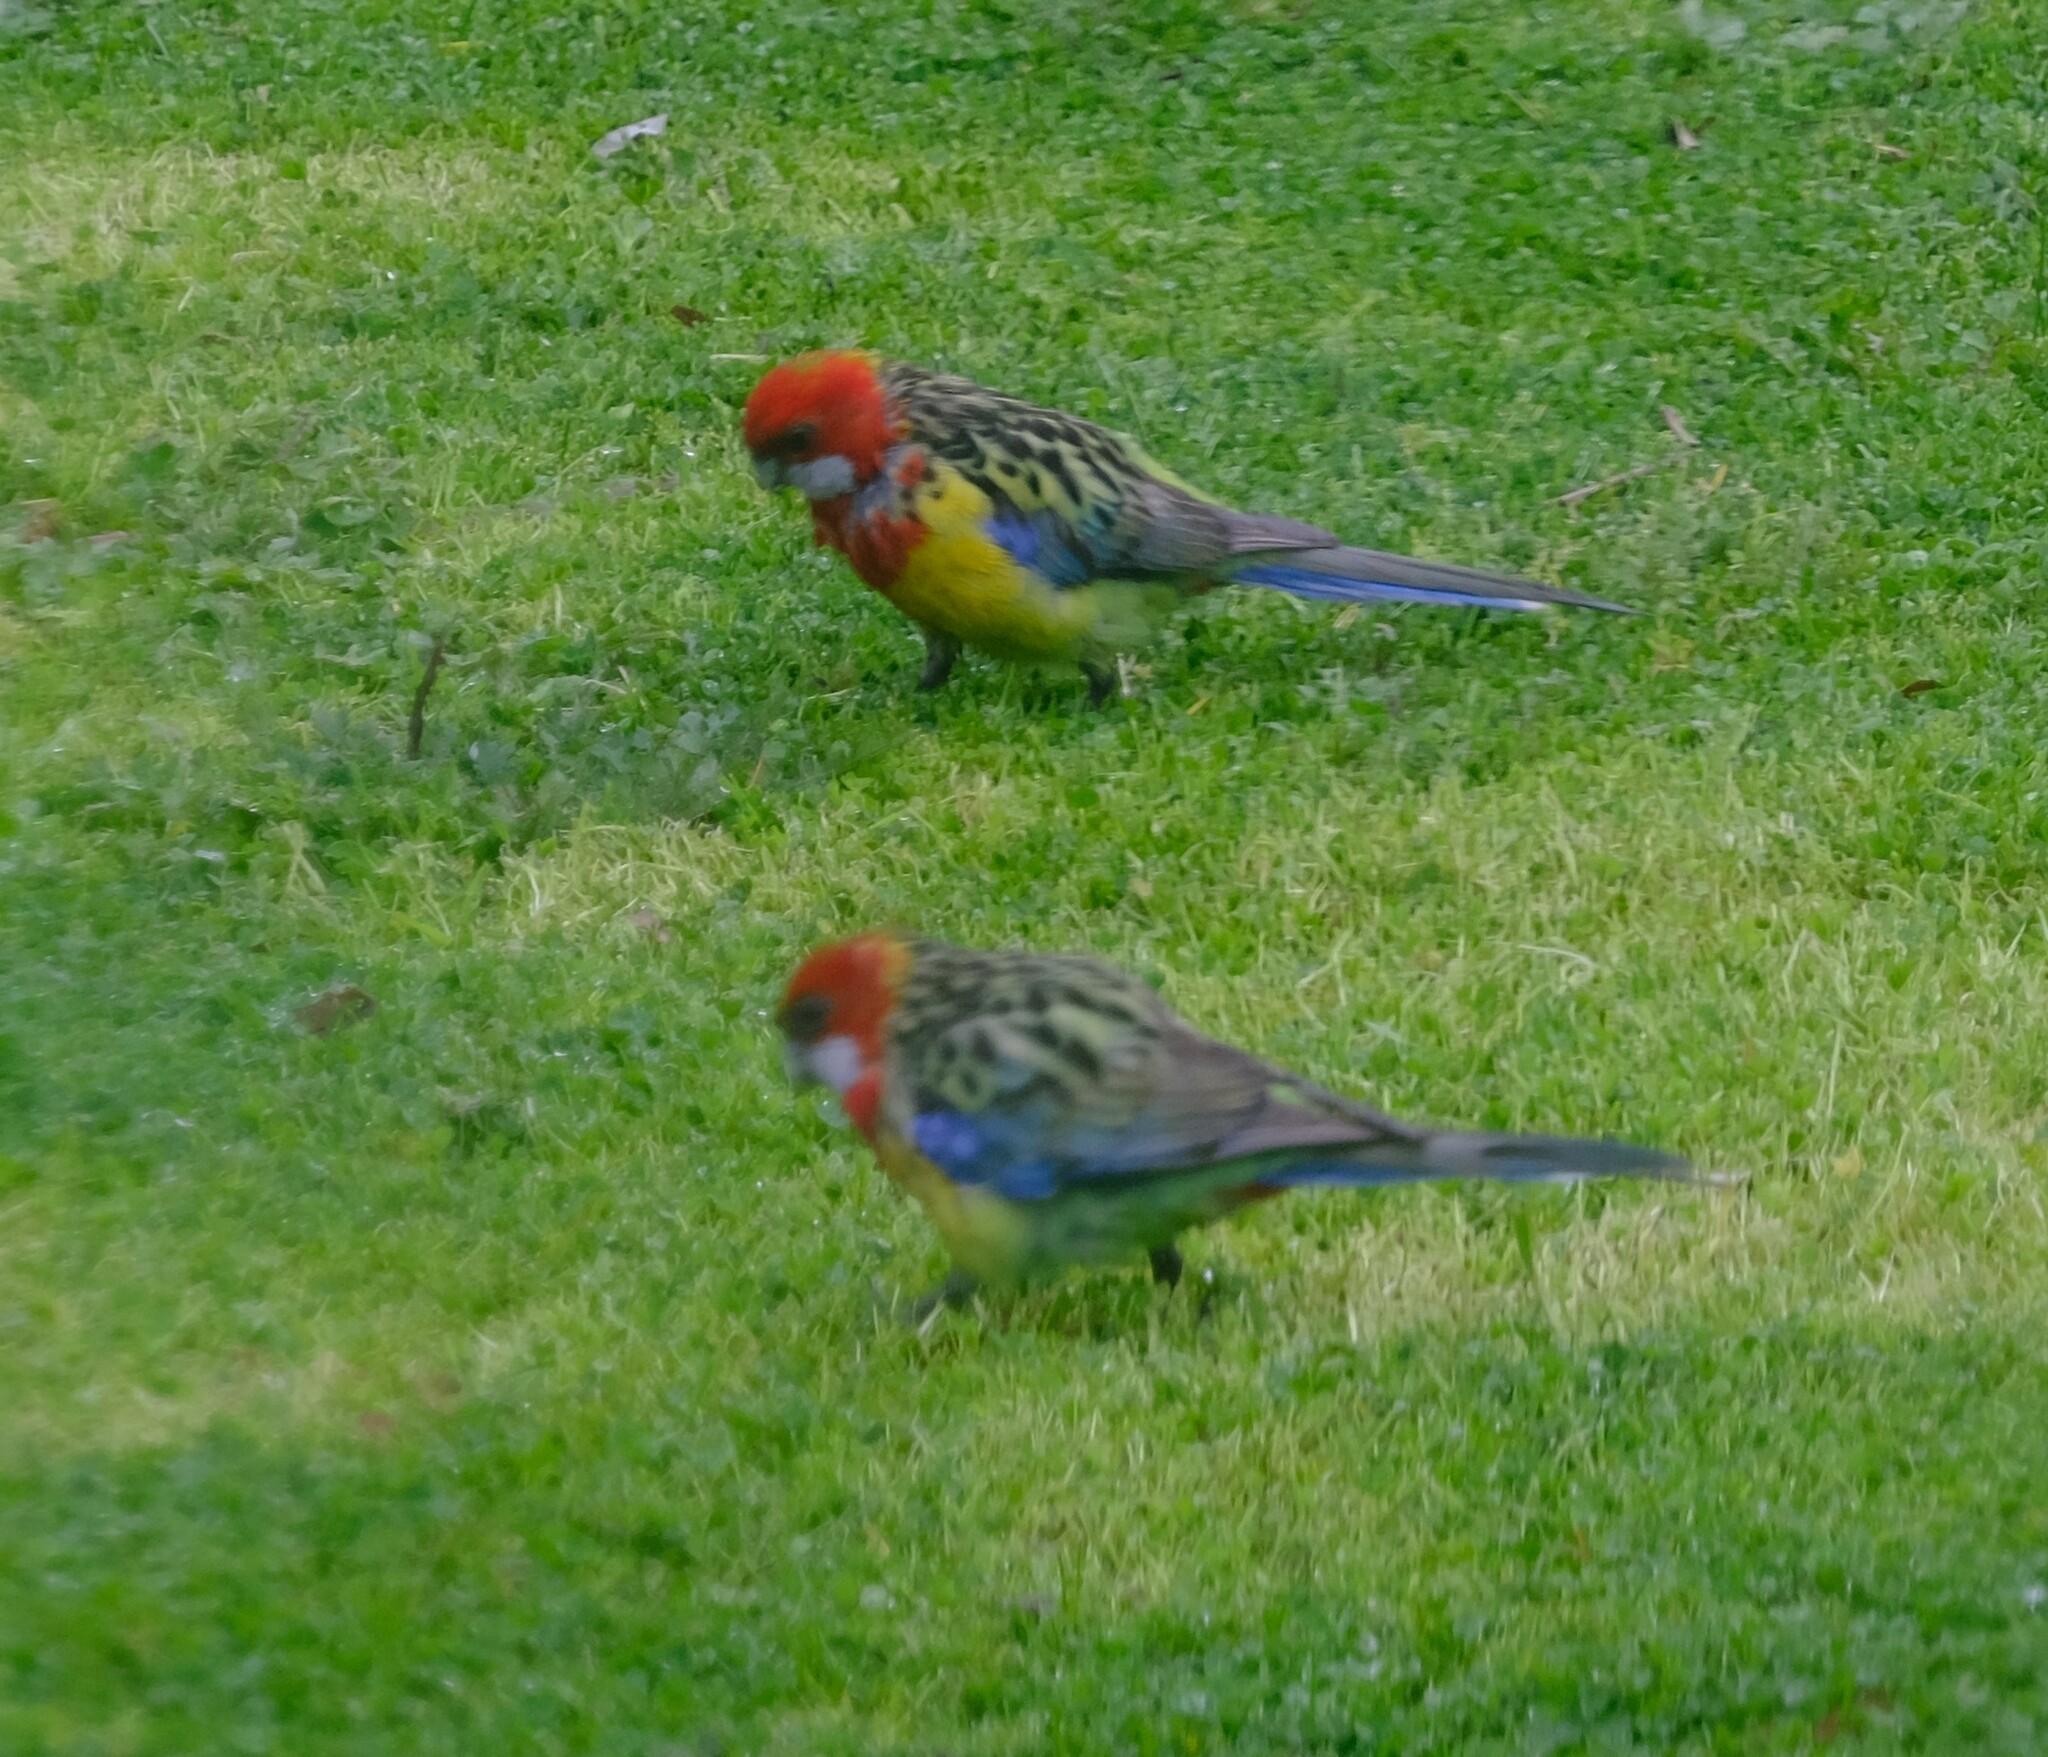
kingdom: Animalia
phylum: Chordata
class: Aves
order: Psittaciformes
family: Psittacidae
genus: Platycercus
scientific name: Platycercus eximius
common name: Eastern rosella
